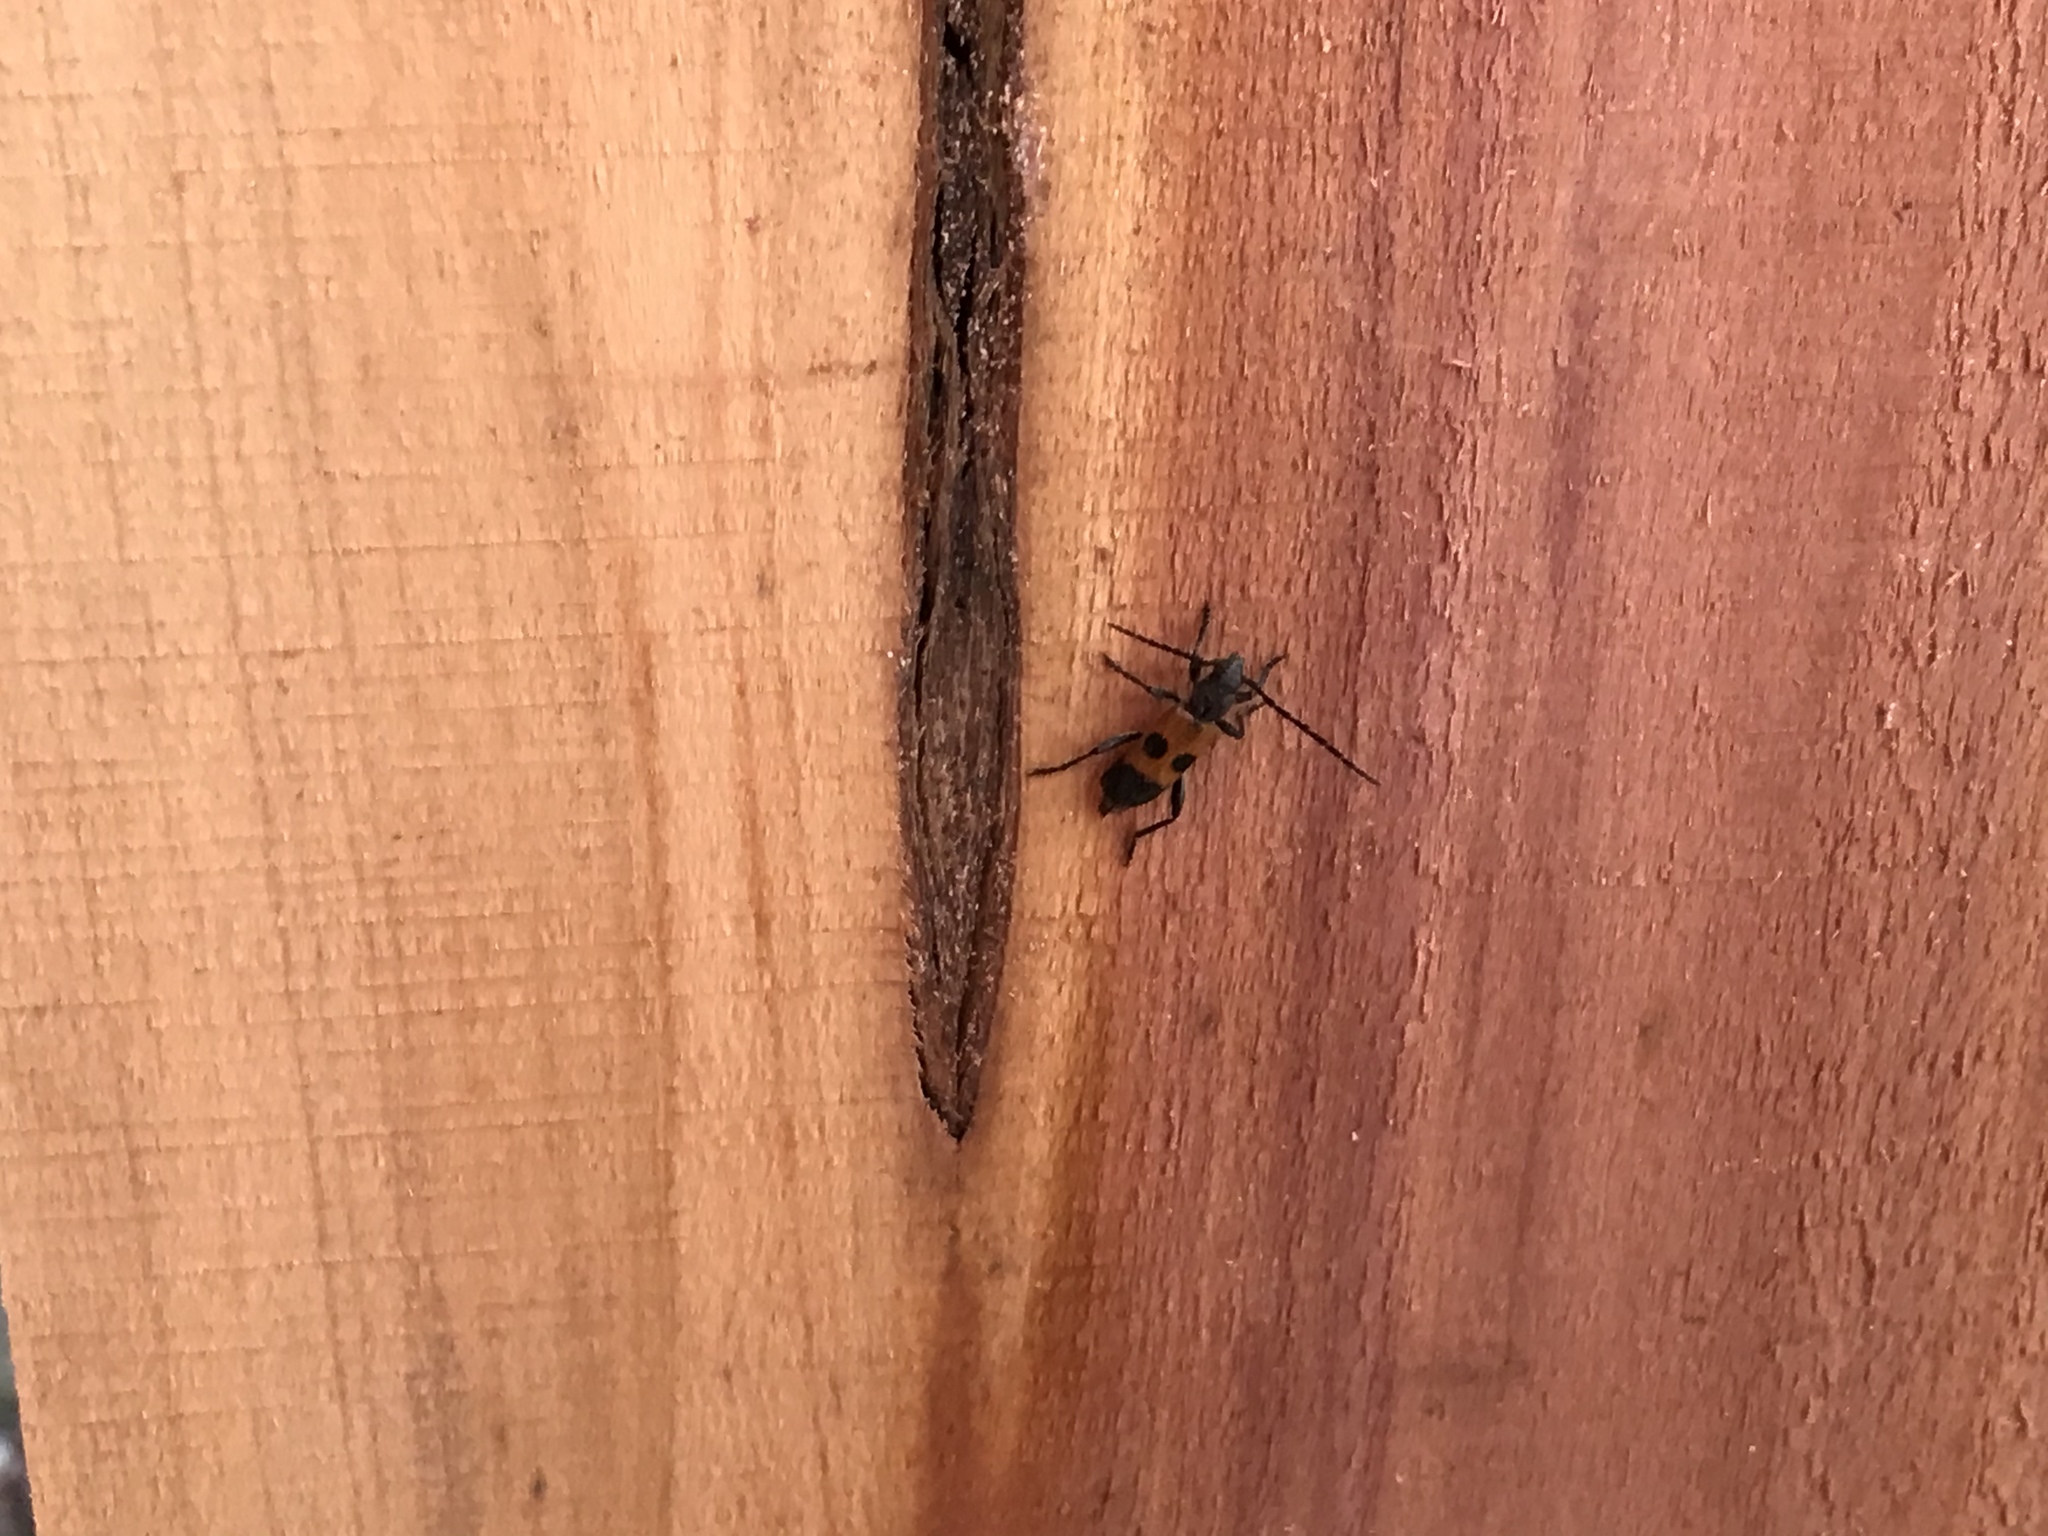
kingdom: Animalia
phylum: Arthropoda
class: Insecta
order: Coleoptera
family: Cerambycidae
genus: Semanotus
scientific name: Semanotus ligneus
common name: Cedartree borer
